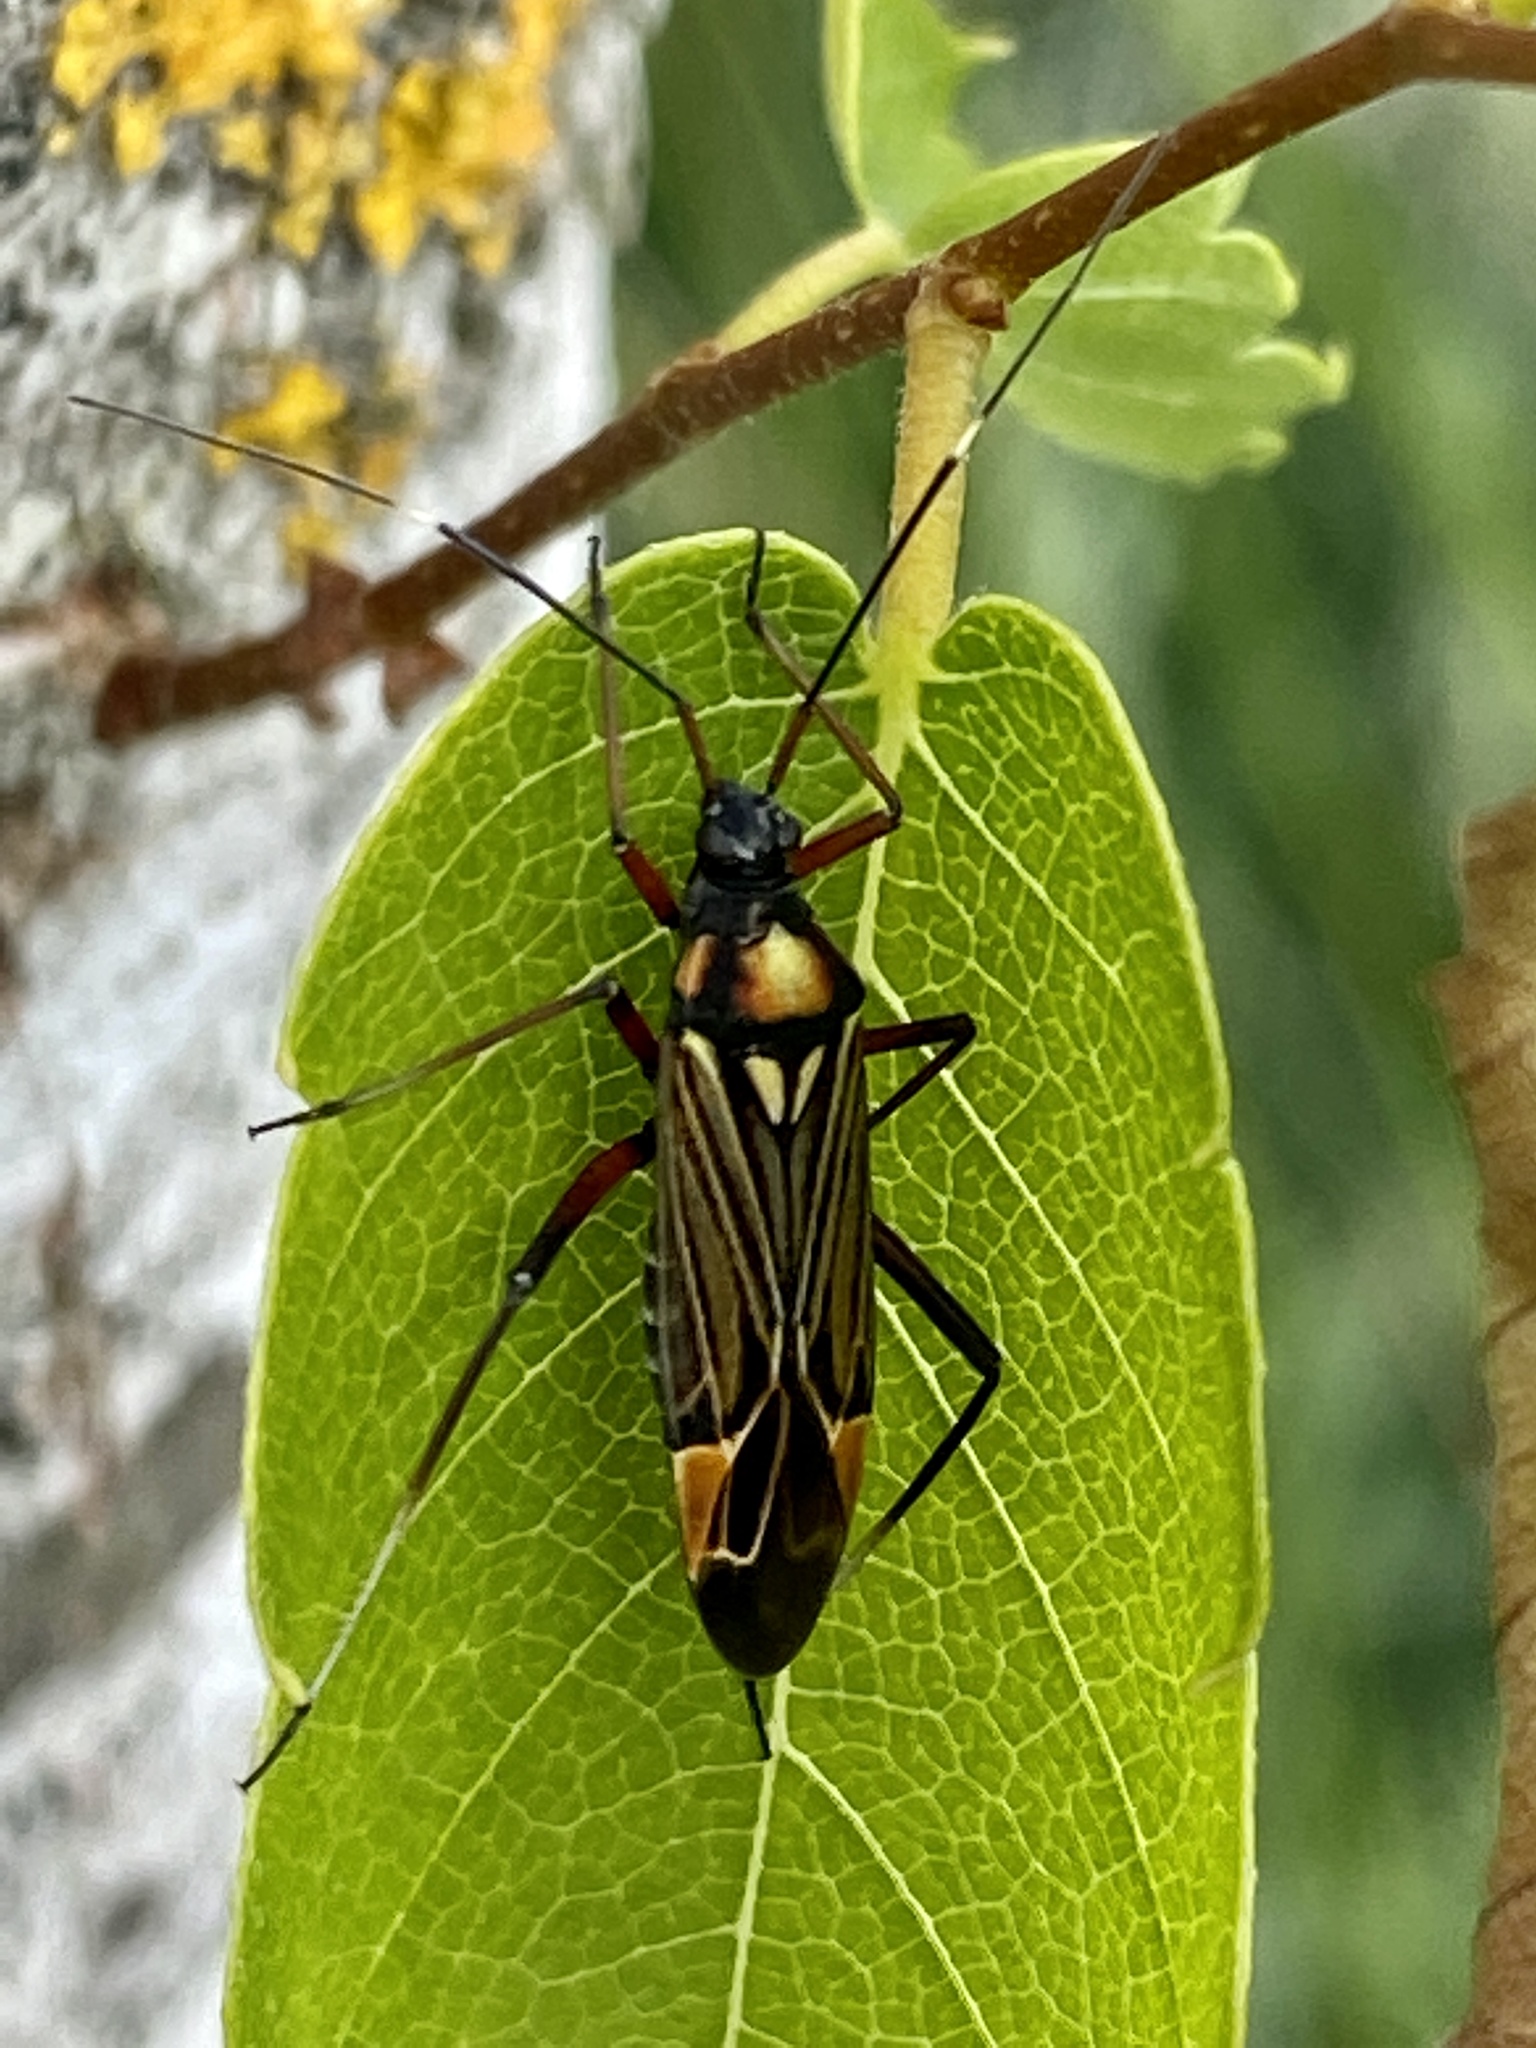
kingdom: Animalia
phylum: Arthropoda
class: Insecta
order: Hemiptera
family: Miridae
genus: Miris
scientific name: Miris striatus
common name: Fine streaked bugkin
